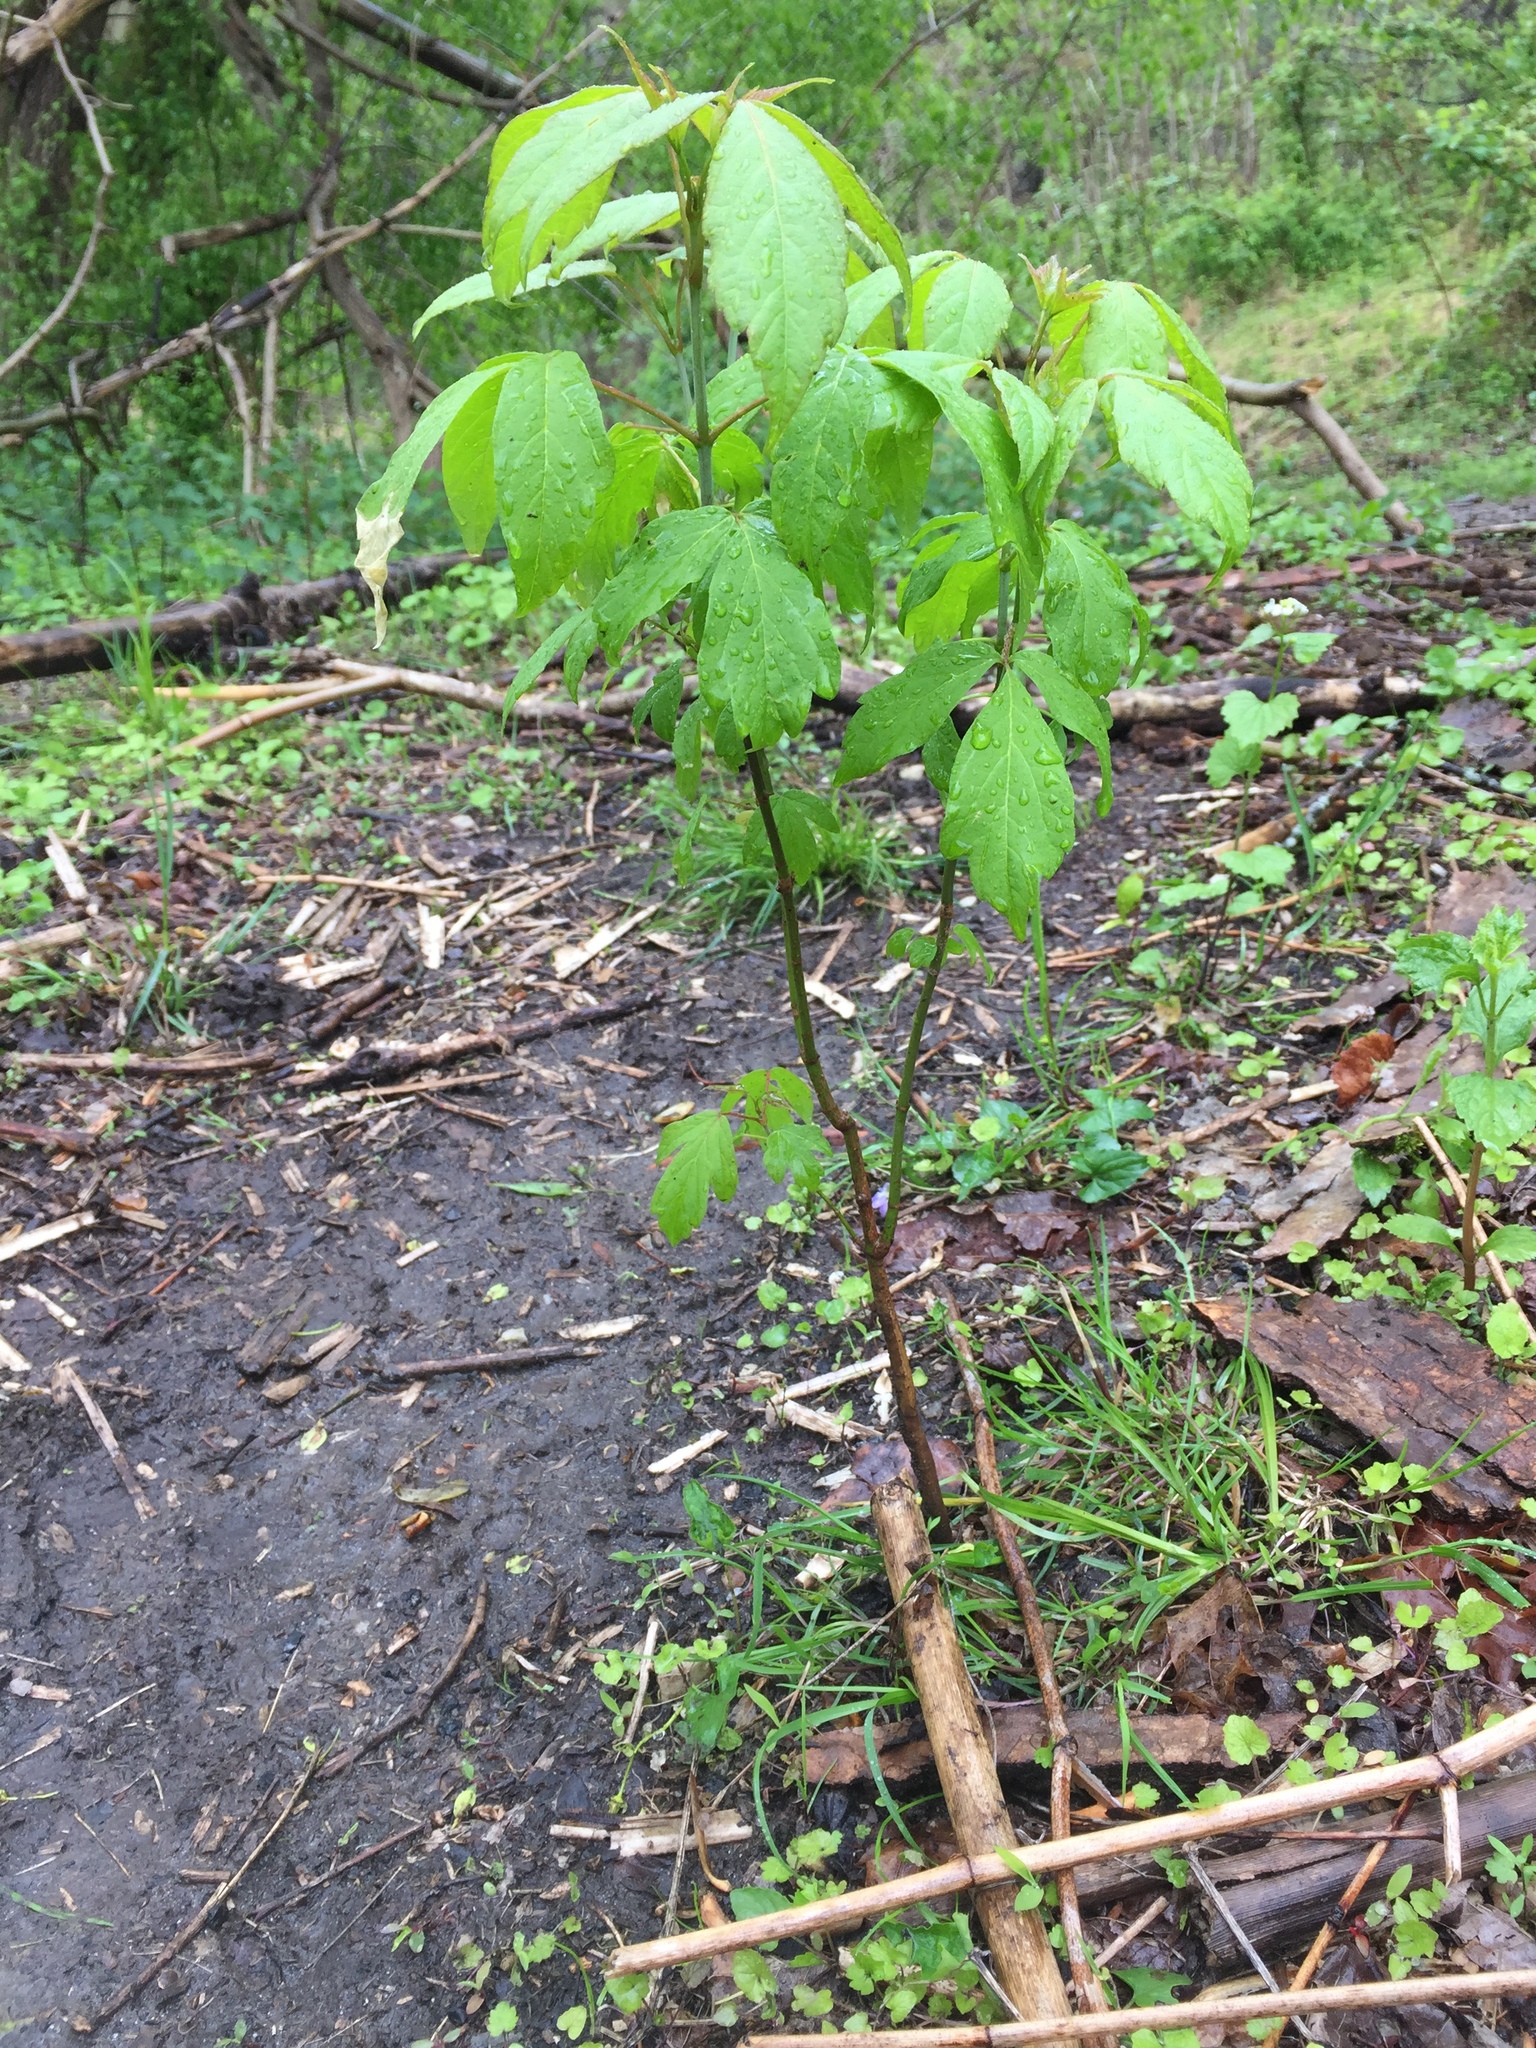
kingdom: Plantae
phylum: Tracheophyta
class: Magnoliopsida
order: Sapindales
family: Sapindaceae
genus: Acer
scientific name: Acer negundo
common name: Ashleaf maple
